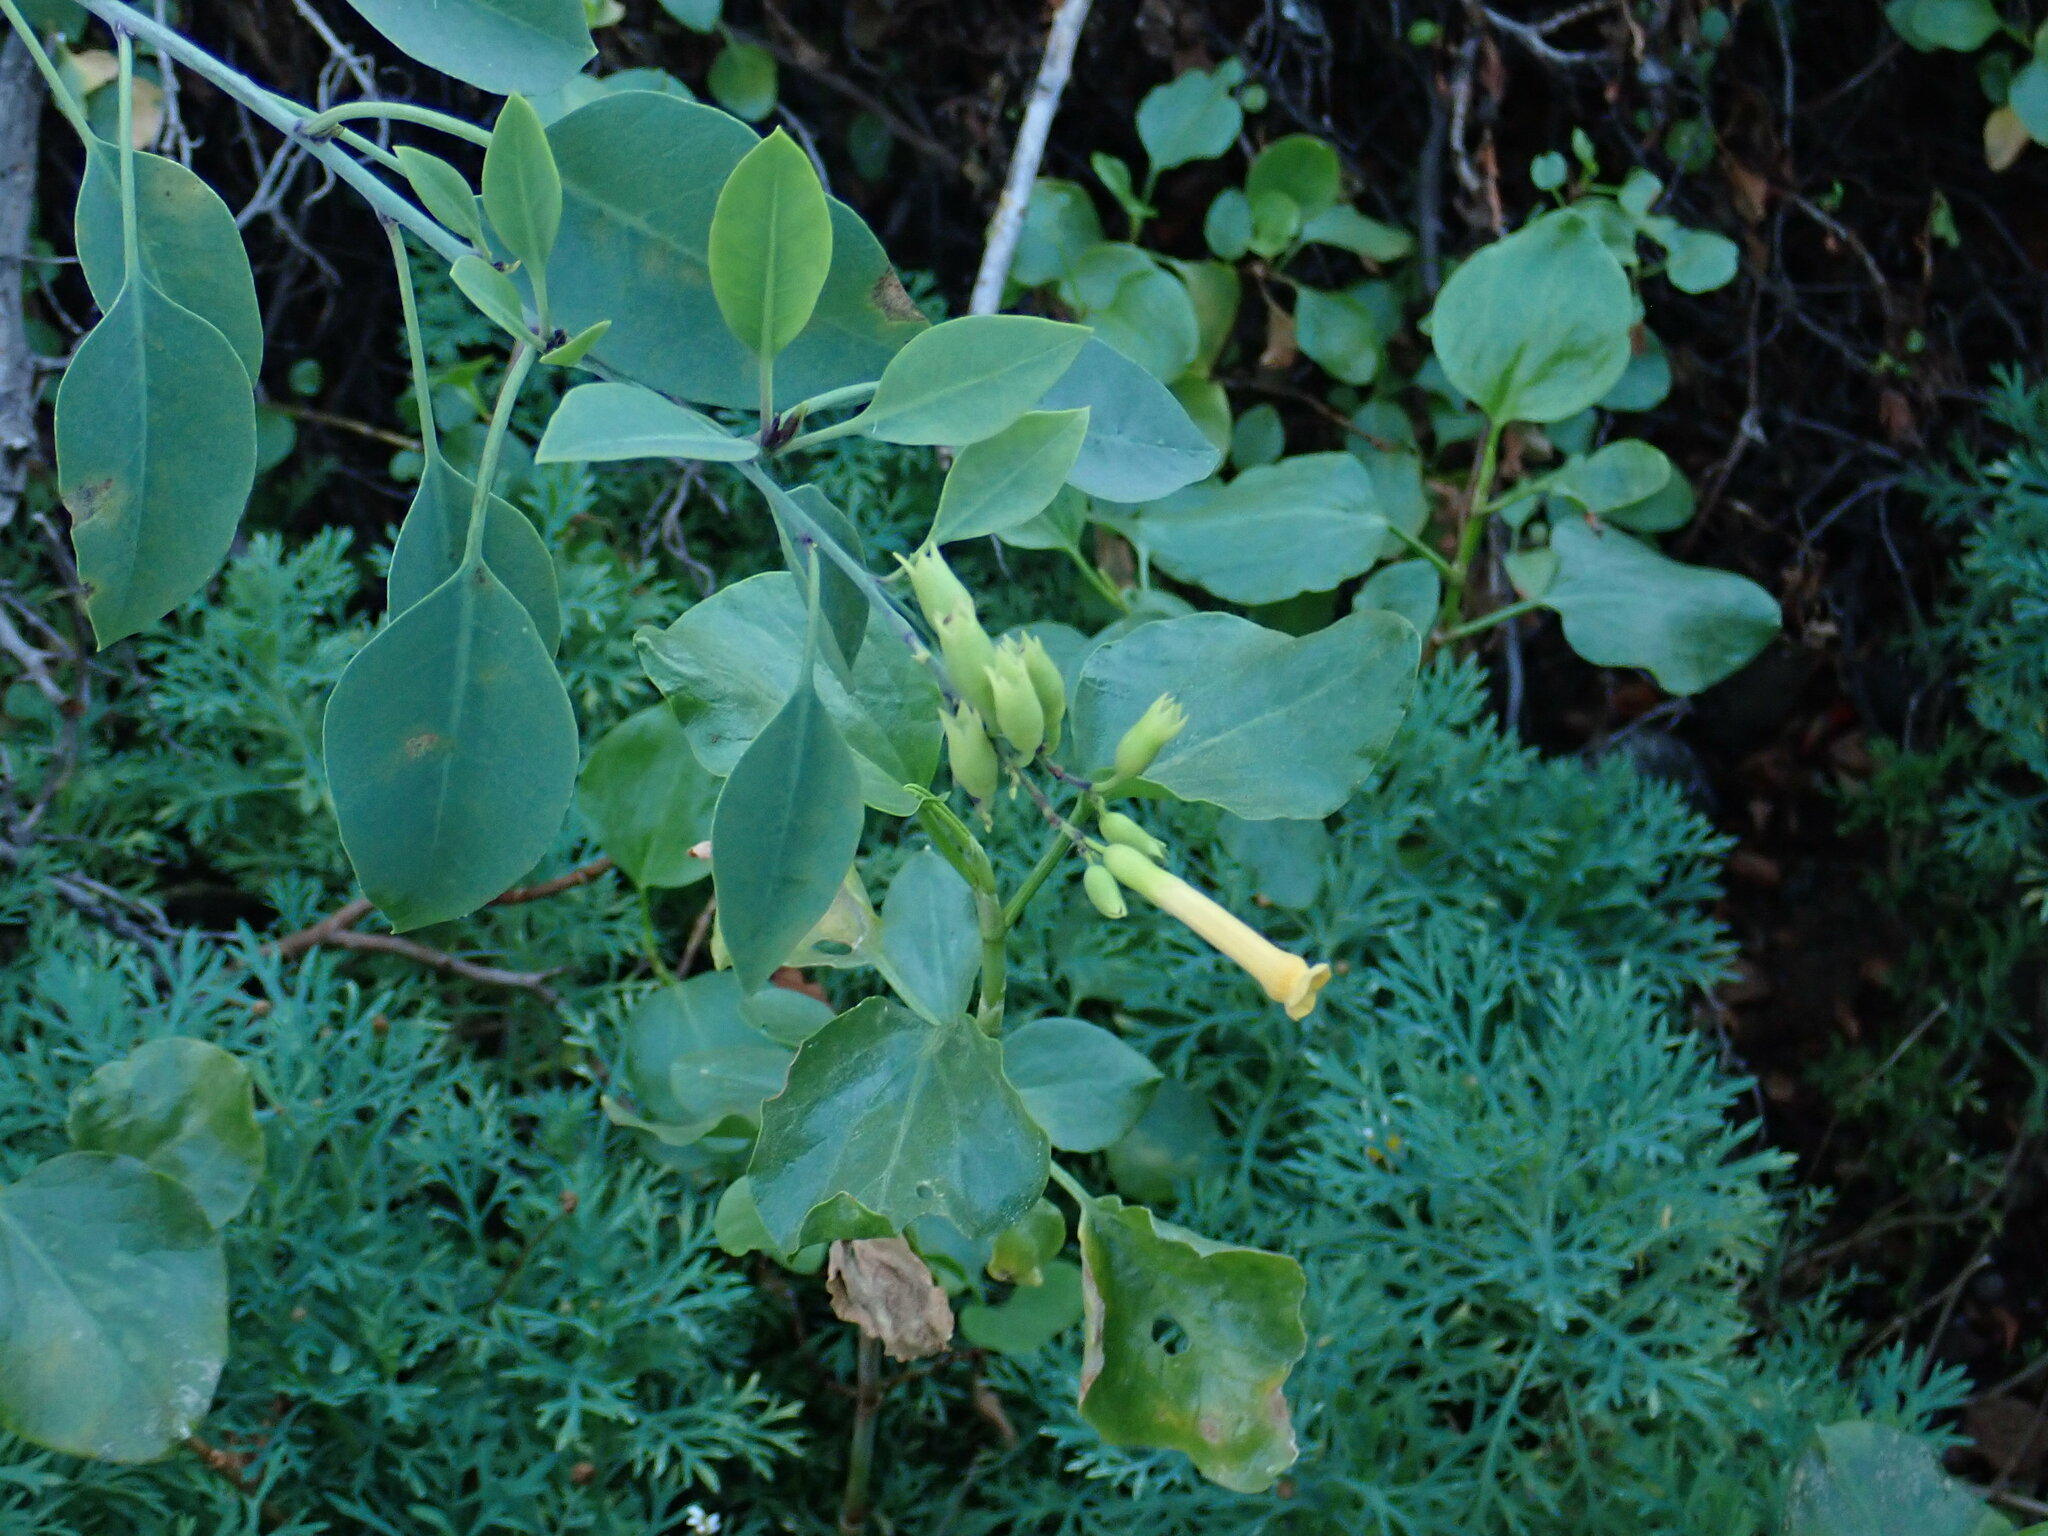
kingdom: Plantae
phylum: Tracheophyta
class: Magnoliopsida
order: Solanales
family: Solanaceae
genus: Nicotiana
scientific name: Nicotiana glauca
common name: Tree tobacco
